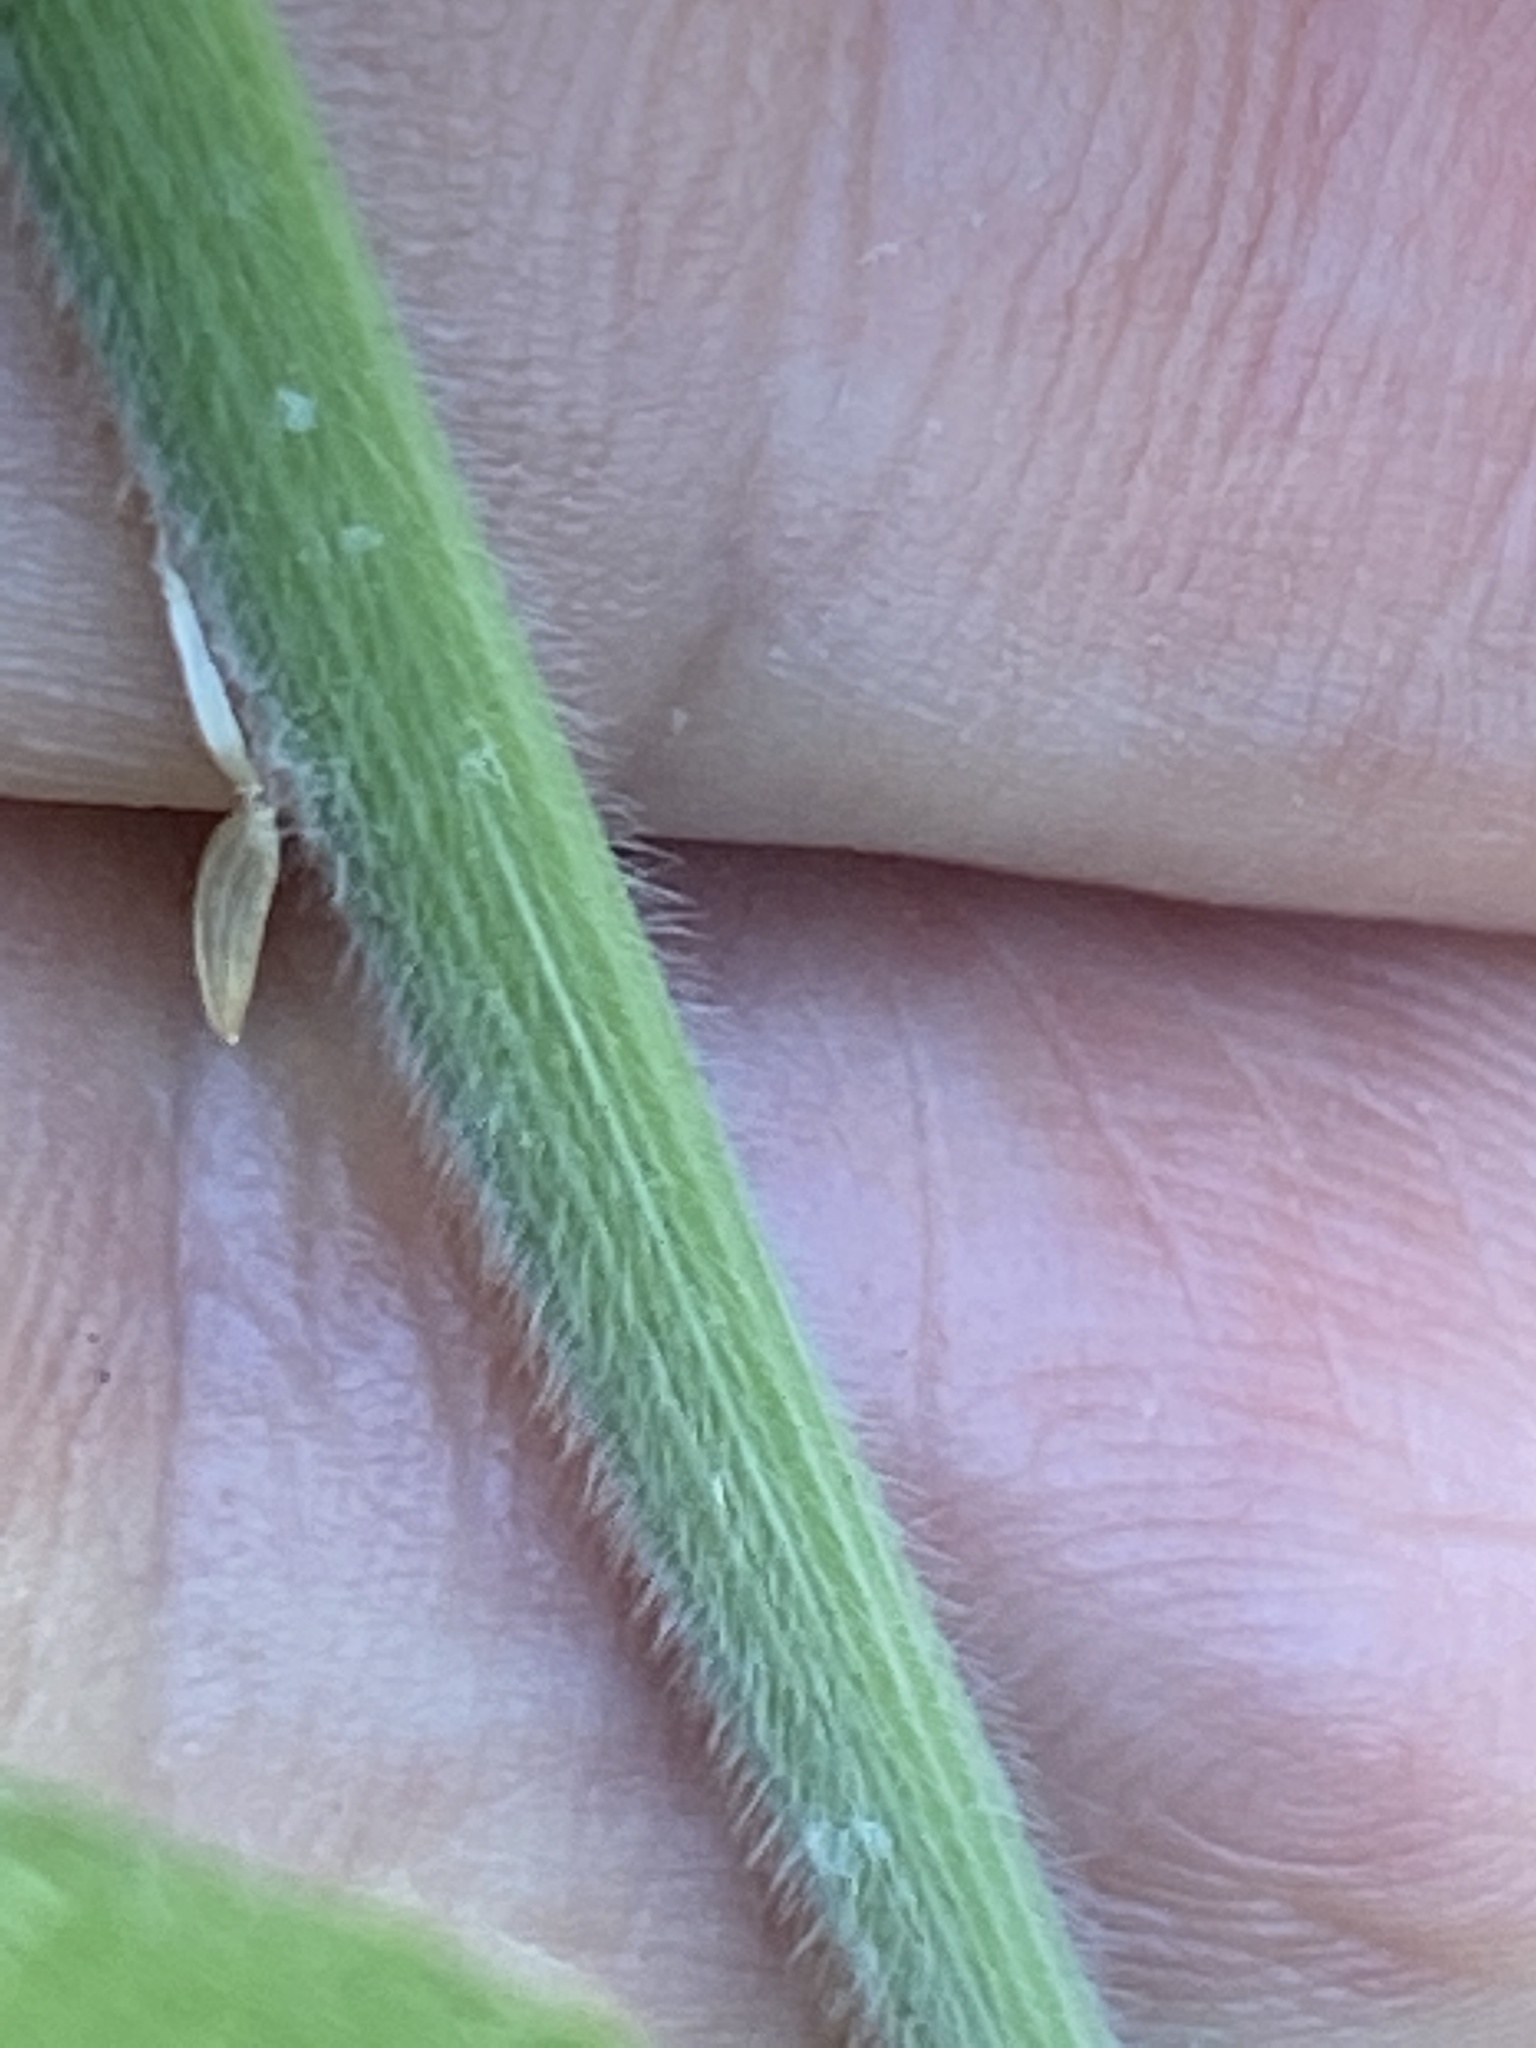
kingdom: Plantae
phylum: Tracheophyta
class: Liliopsida
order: Poales
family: Poaceae
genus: Holcus
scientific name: Holcus lanatus
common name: Yorkshire-fog
